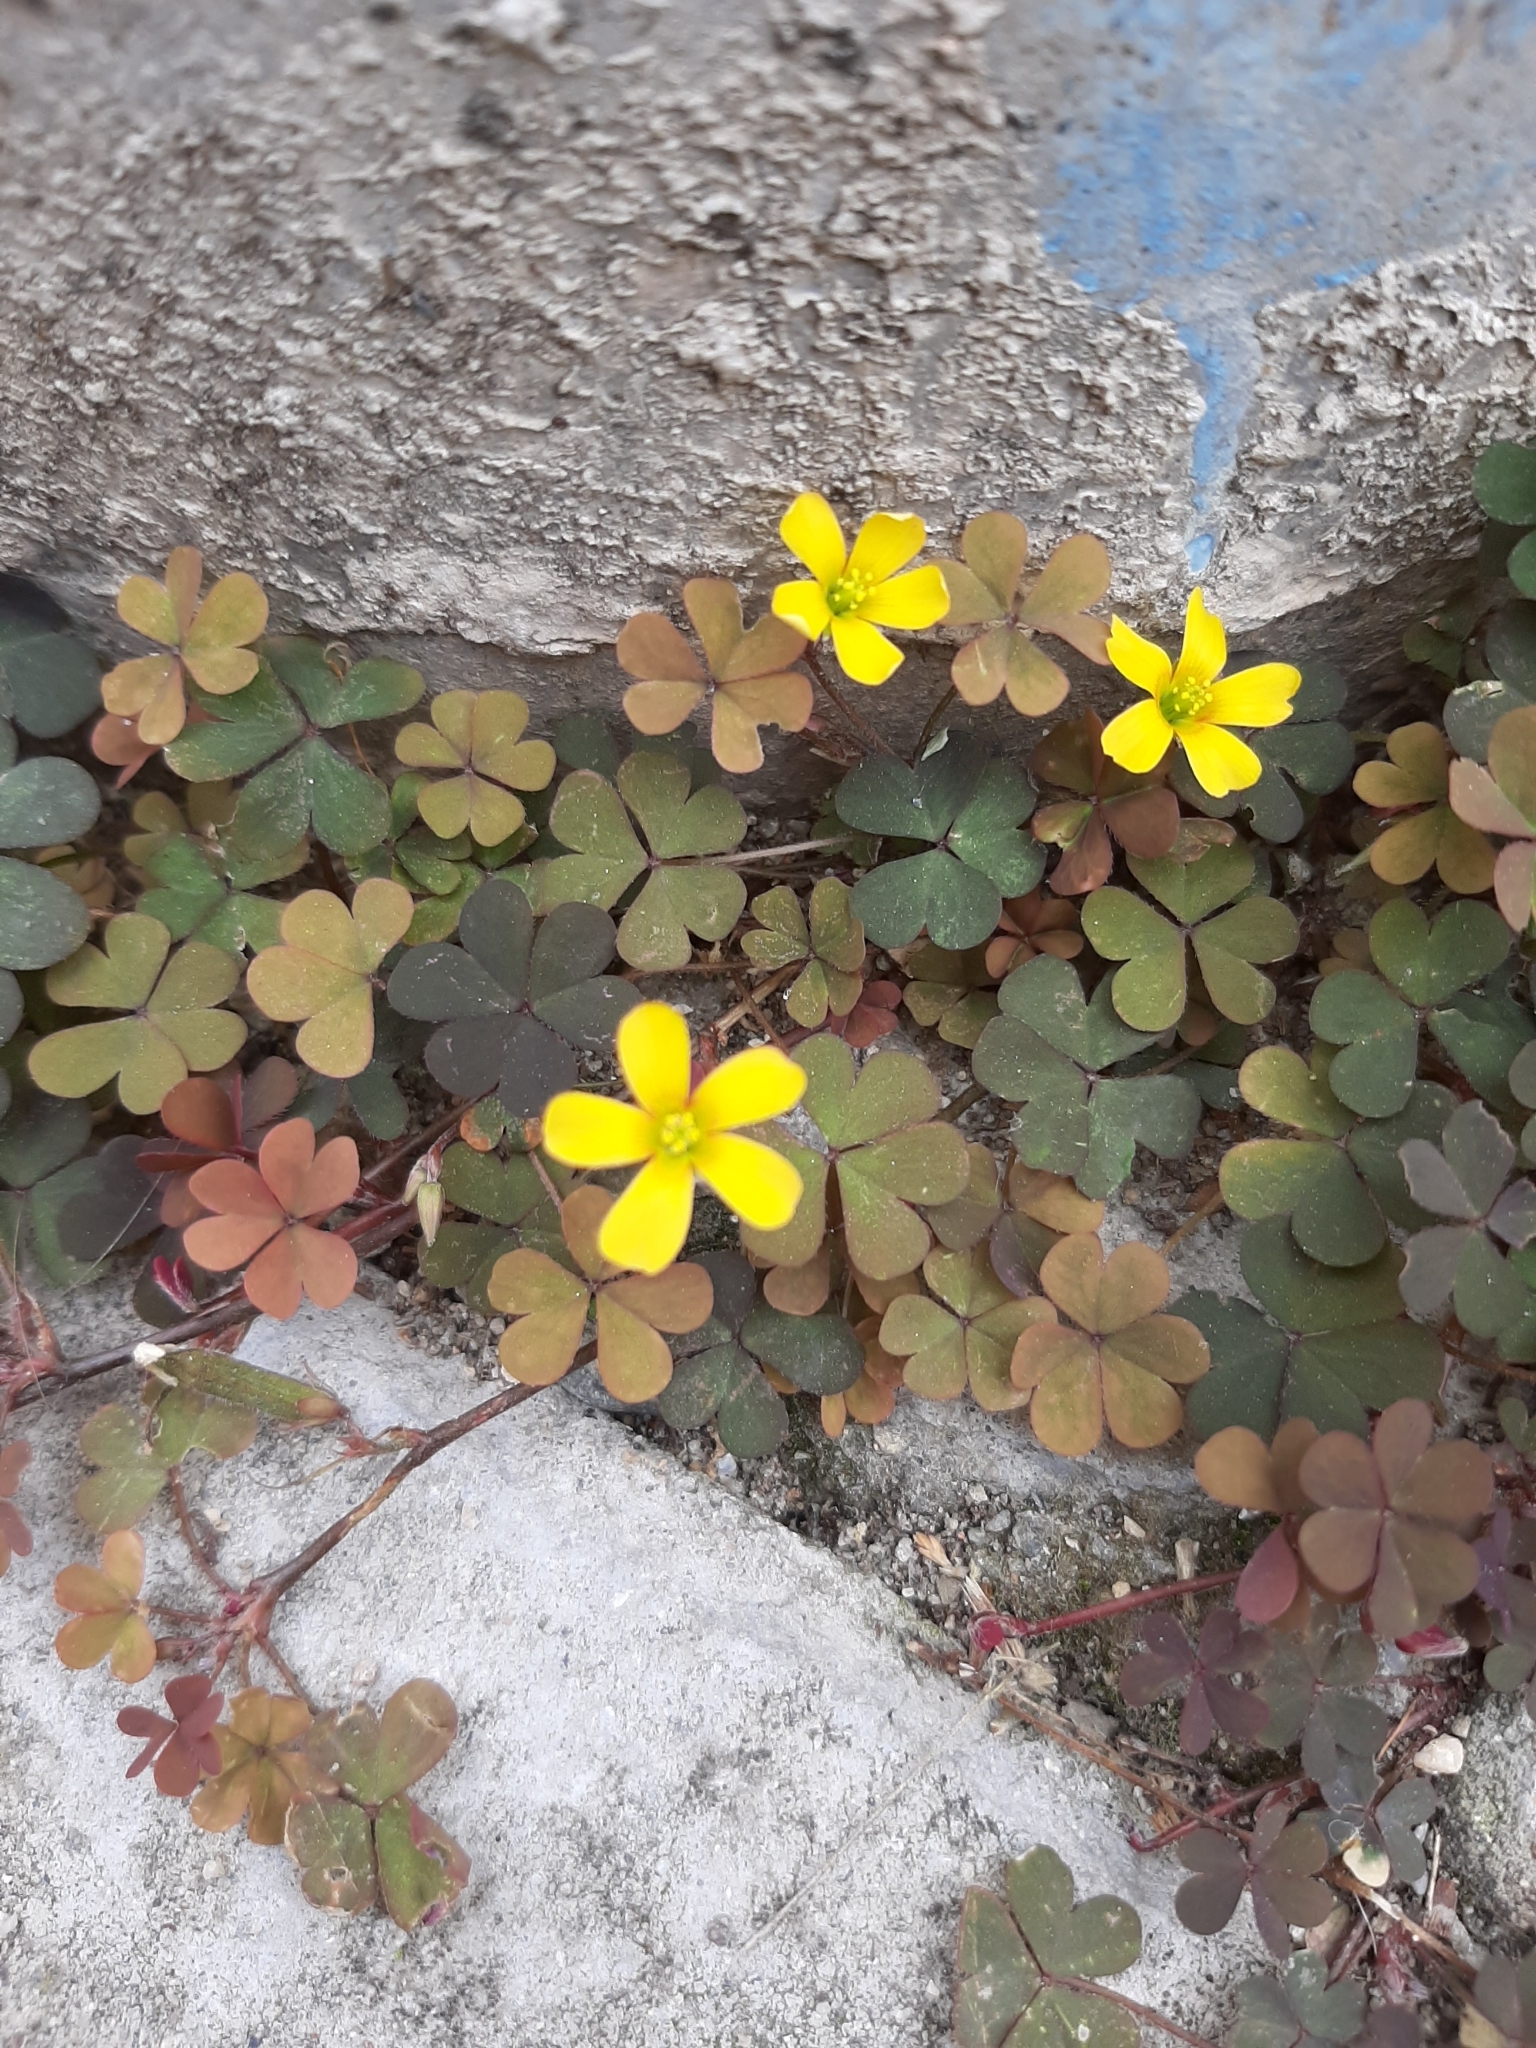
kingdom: Plantae
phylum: Tracheophyta
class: Magnoliopsida
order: Oxalidales
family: Oxalidaceae
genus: Oxalis
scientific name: Oxalis corniculata
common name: Procumbent yellow-sorrel
